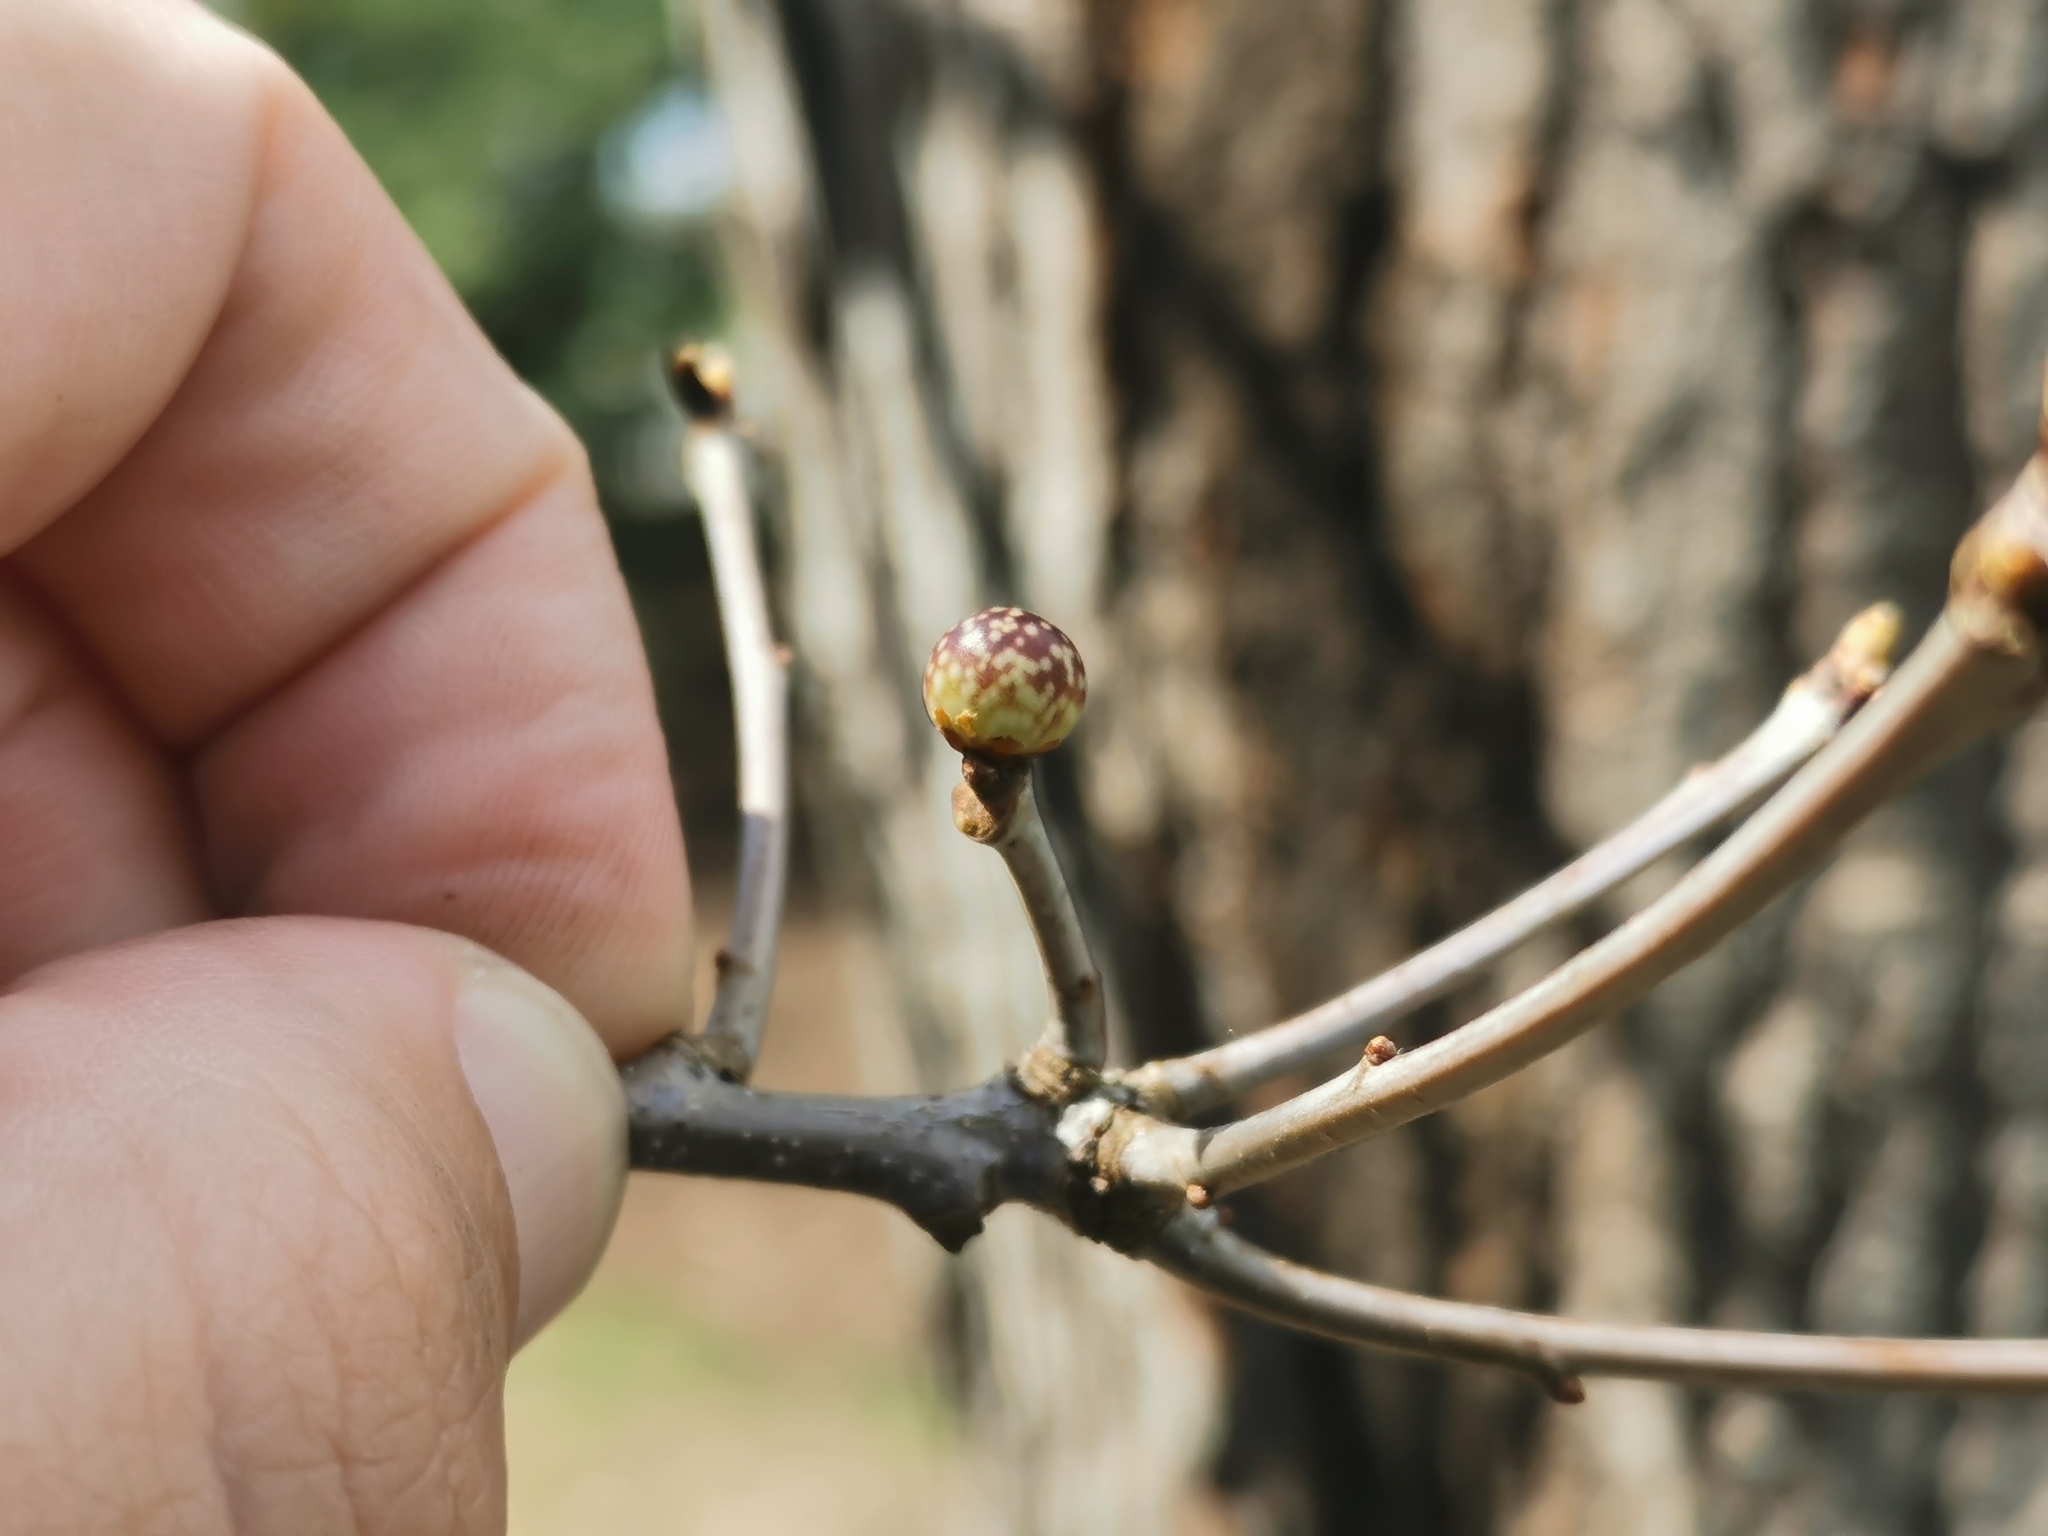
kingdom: Animalia
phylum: Arthropoda
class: Insecta
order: Hymenoptera
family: Cynipidae
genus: Andricus
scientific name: Andricus
